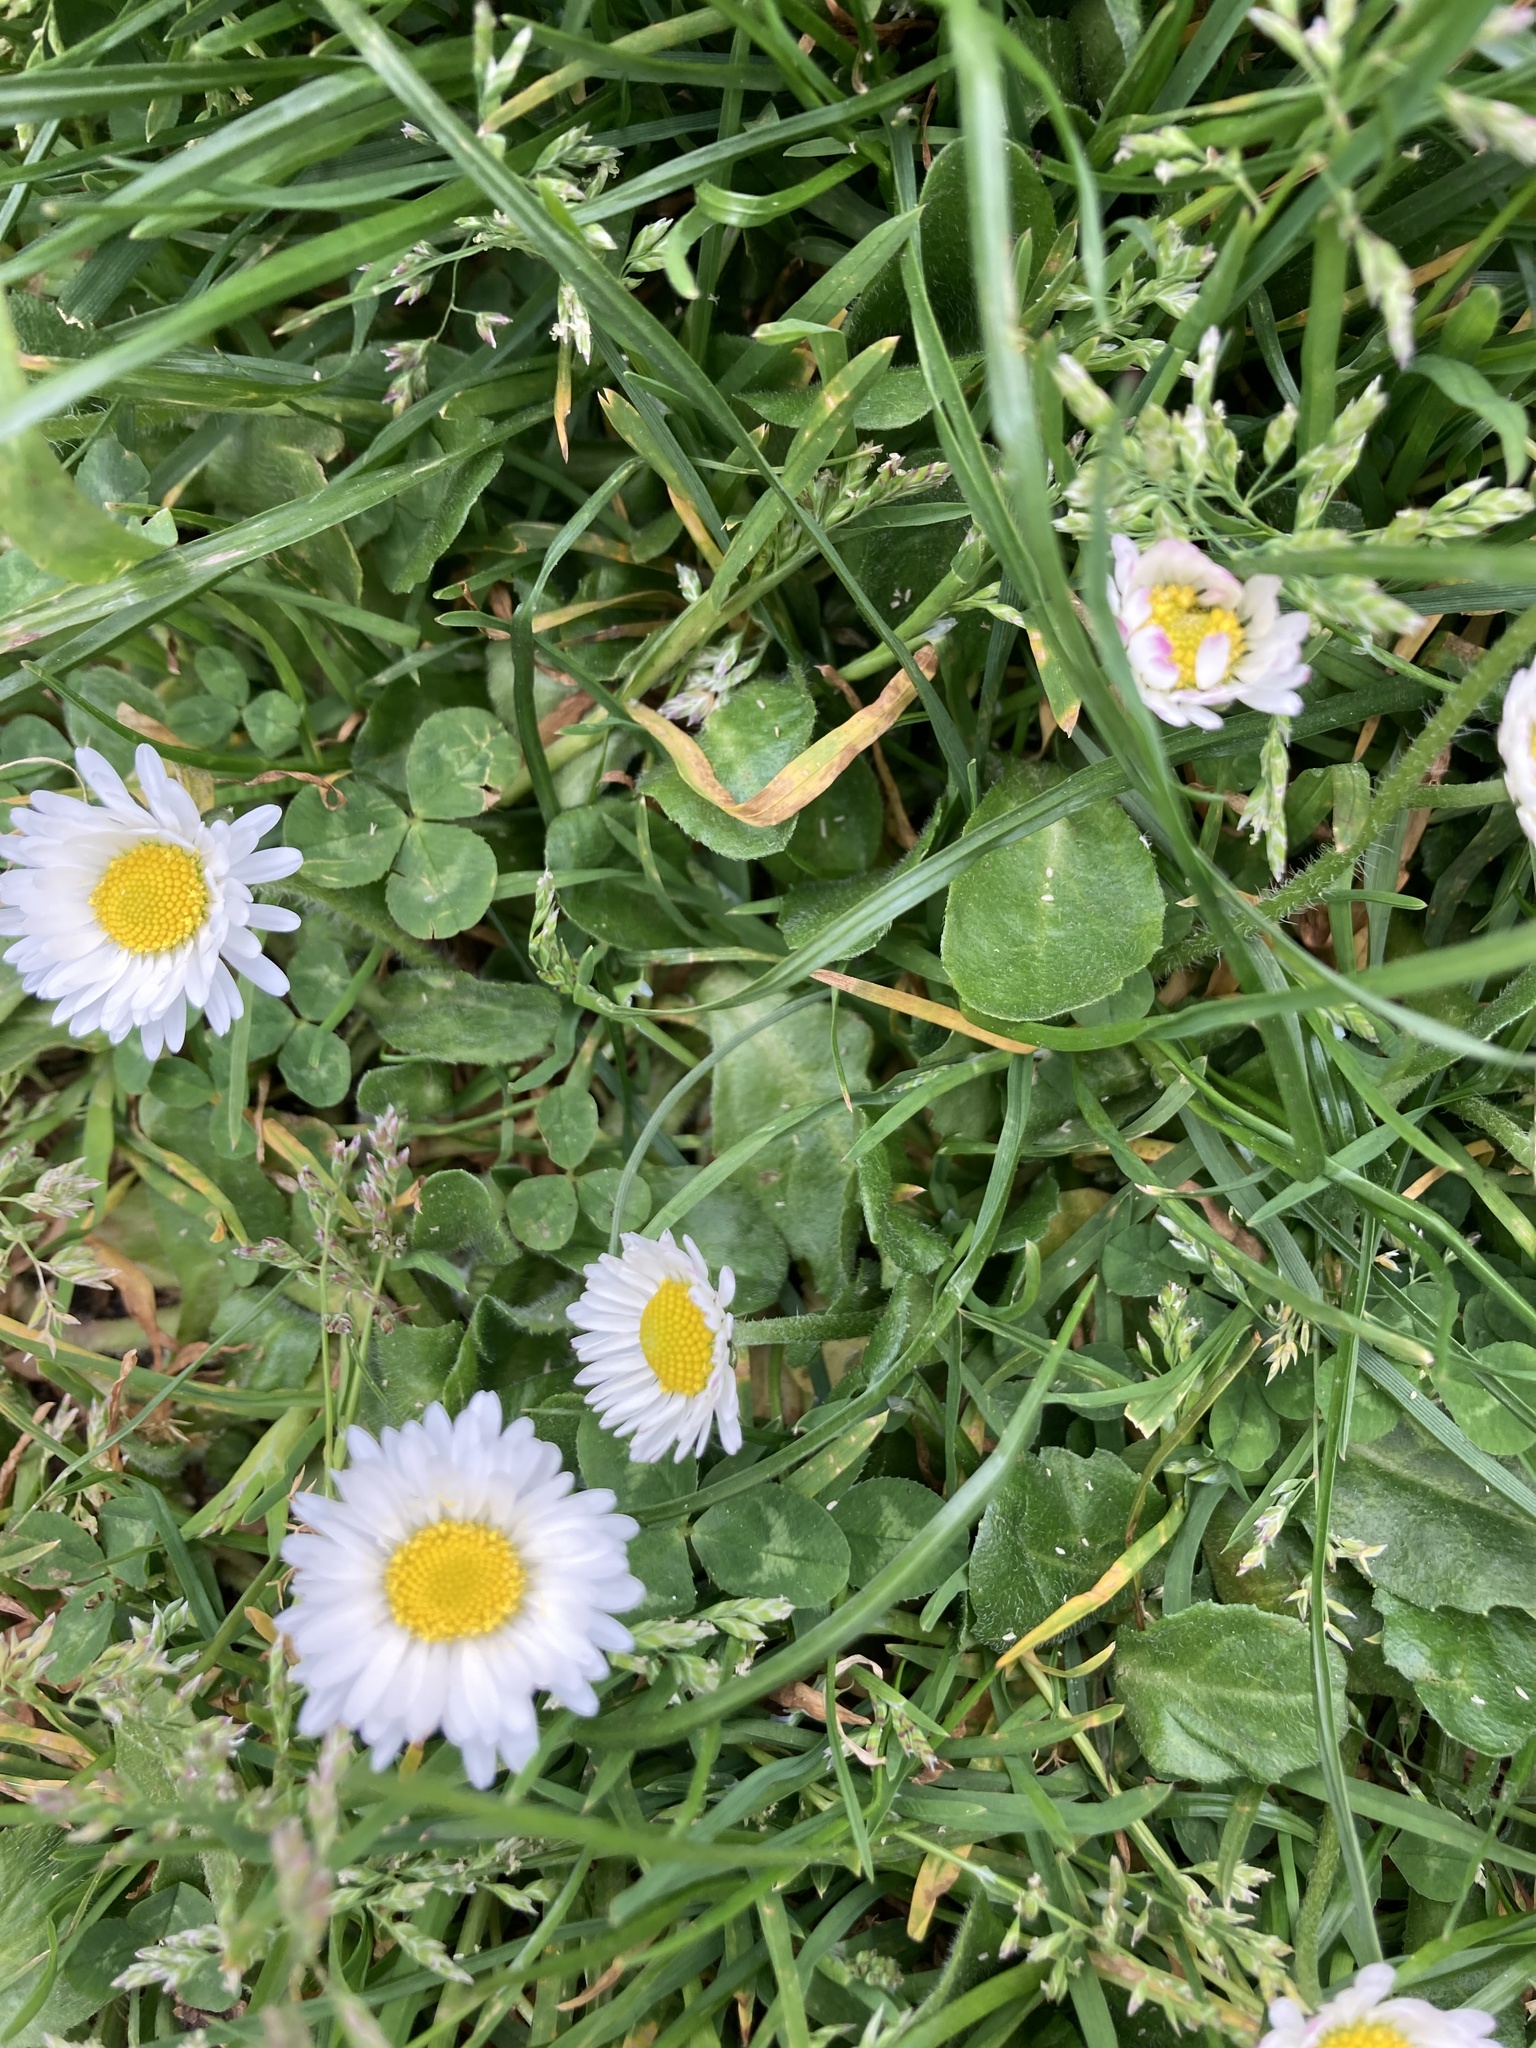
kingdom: Plantae
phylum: Tracheophyta
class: Magnoliopsida
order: Asterales
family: Asteraceae
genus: Bellis
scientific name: Bellis perennis
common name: Lawndaisy
